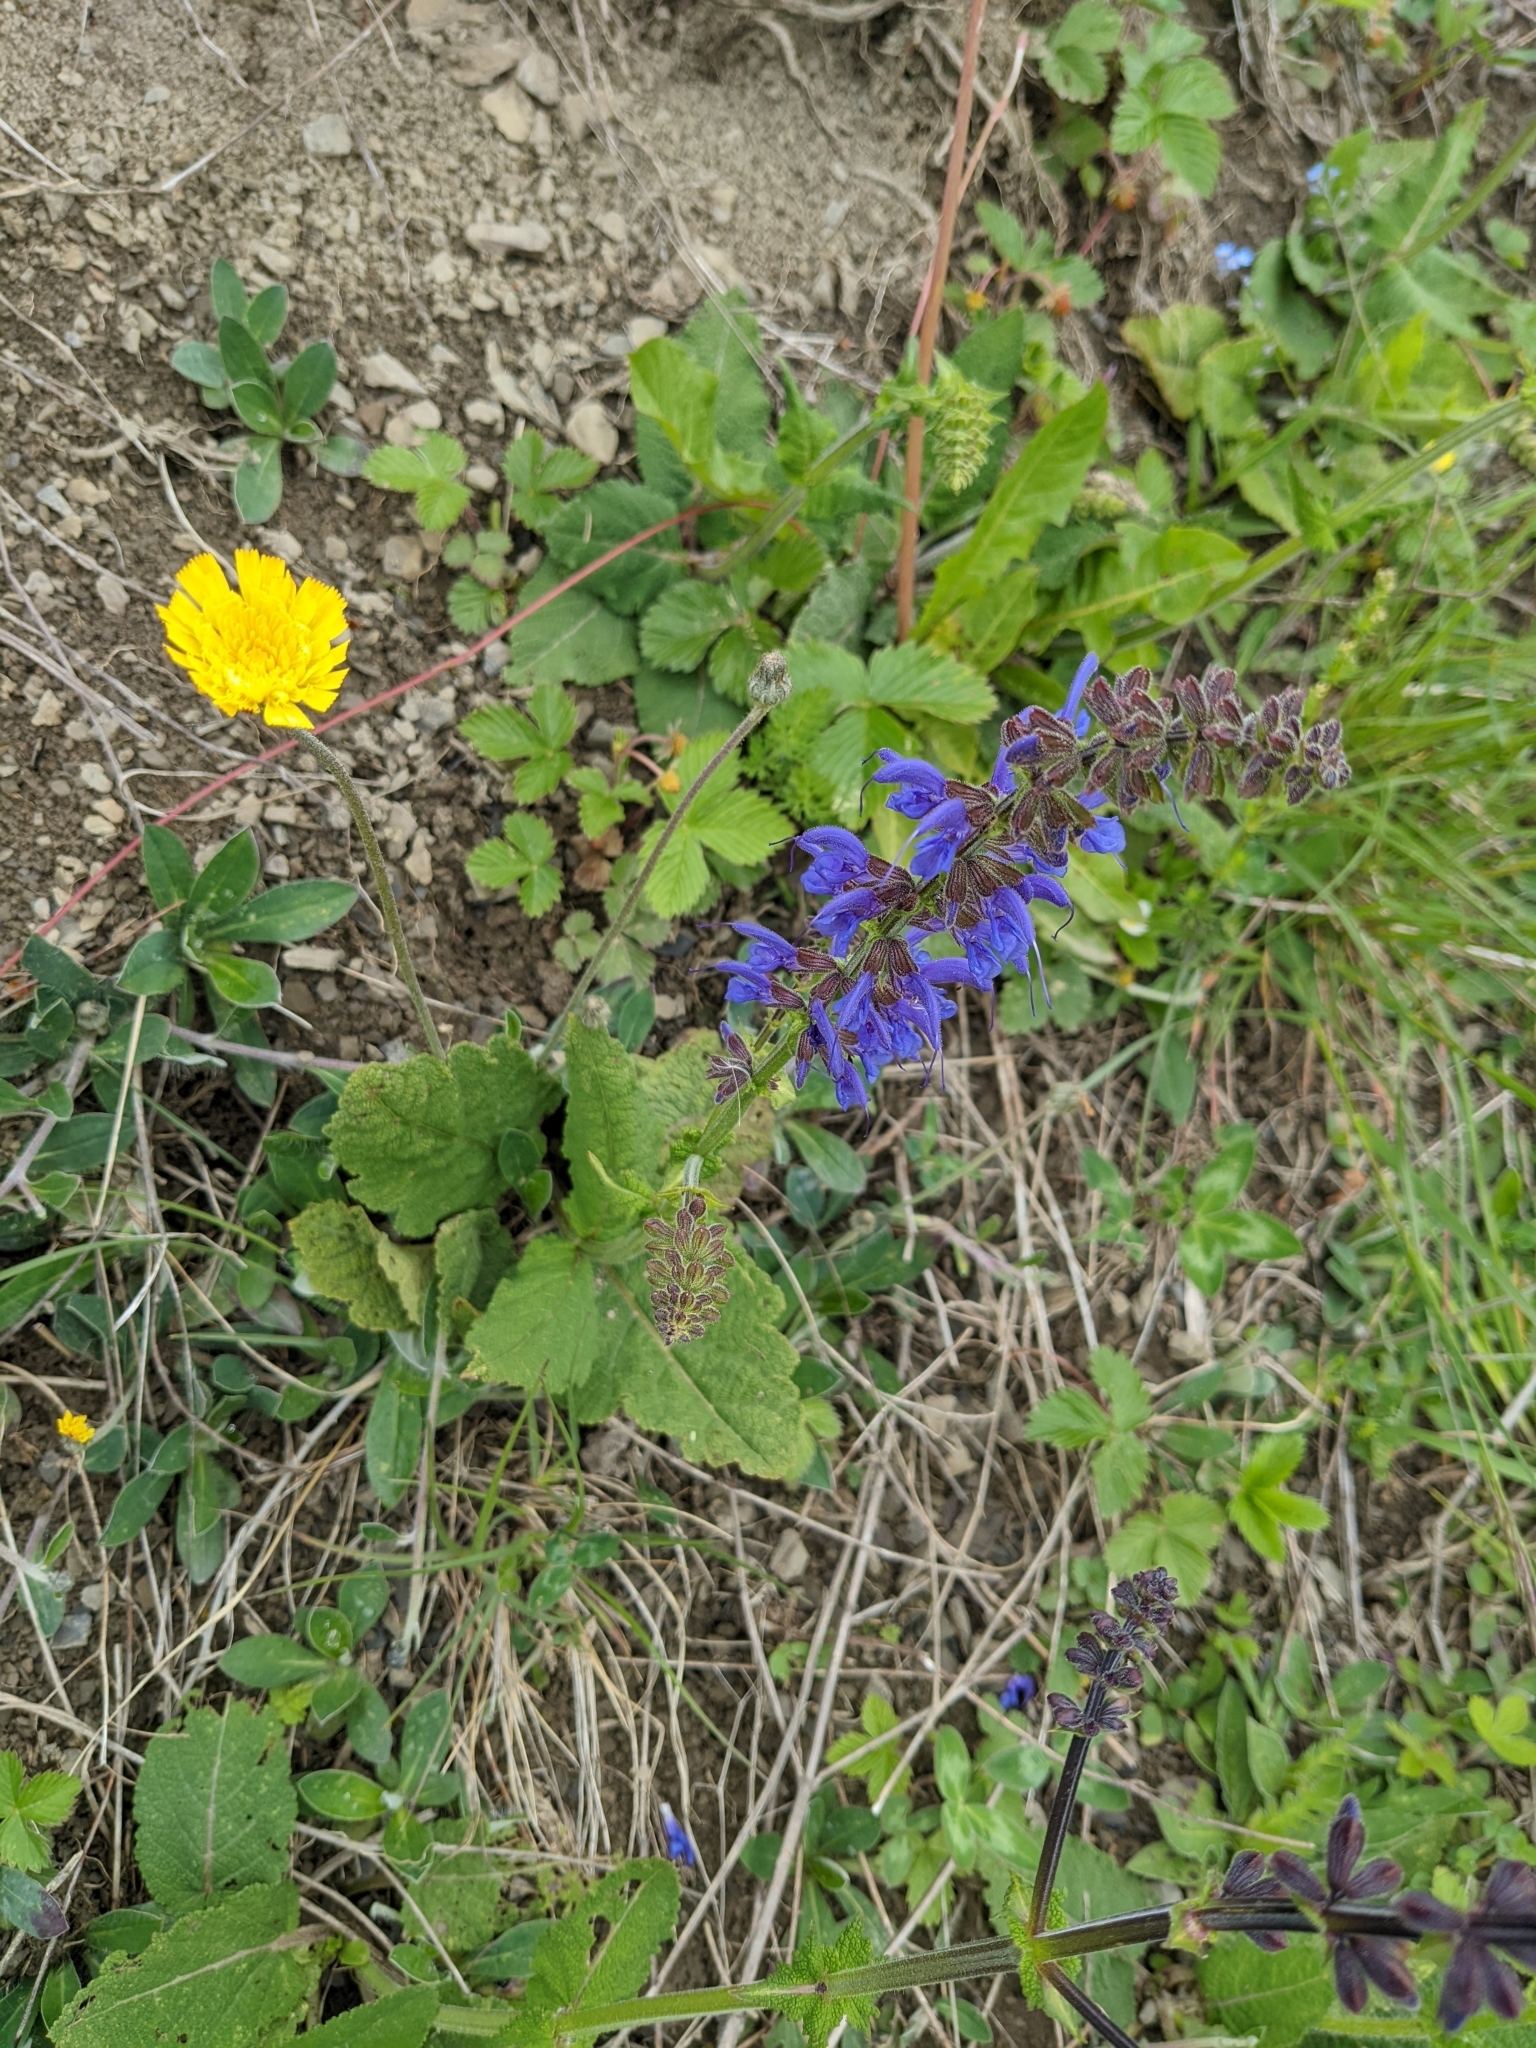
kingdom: Plantae
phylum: Tracheophyta
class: Magnoliopsida
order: Lamiales
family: Lamiaceae
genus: Salvia
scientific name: Salvia pratensis
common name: Meadow sage
